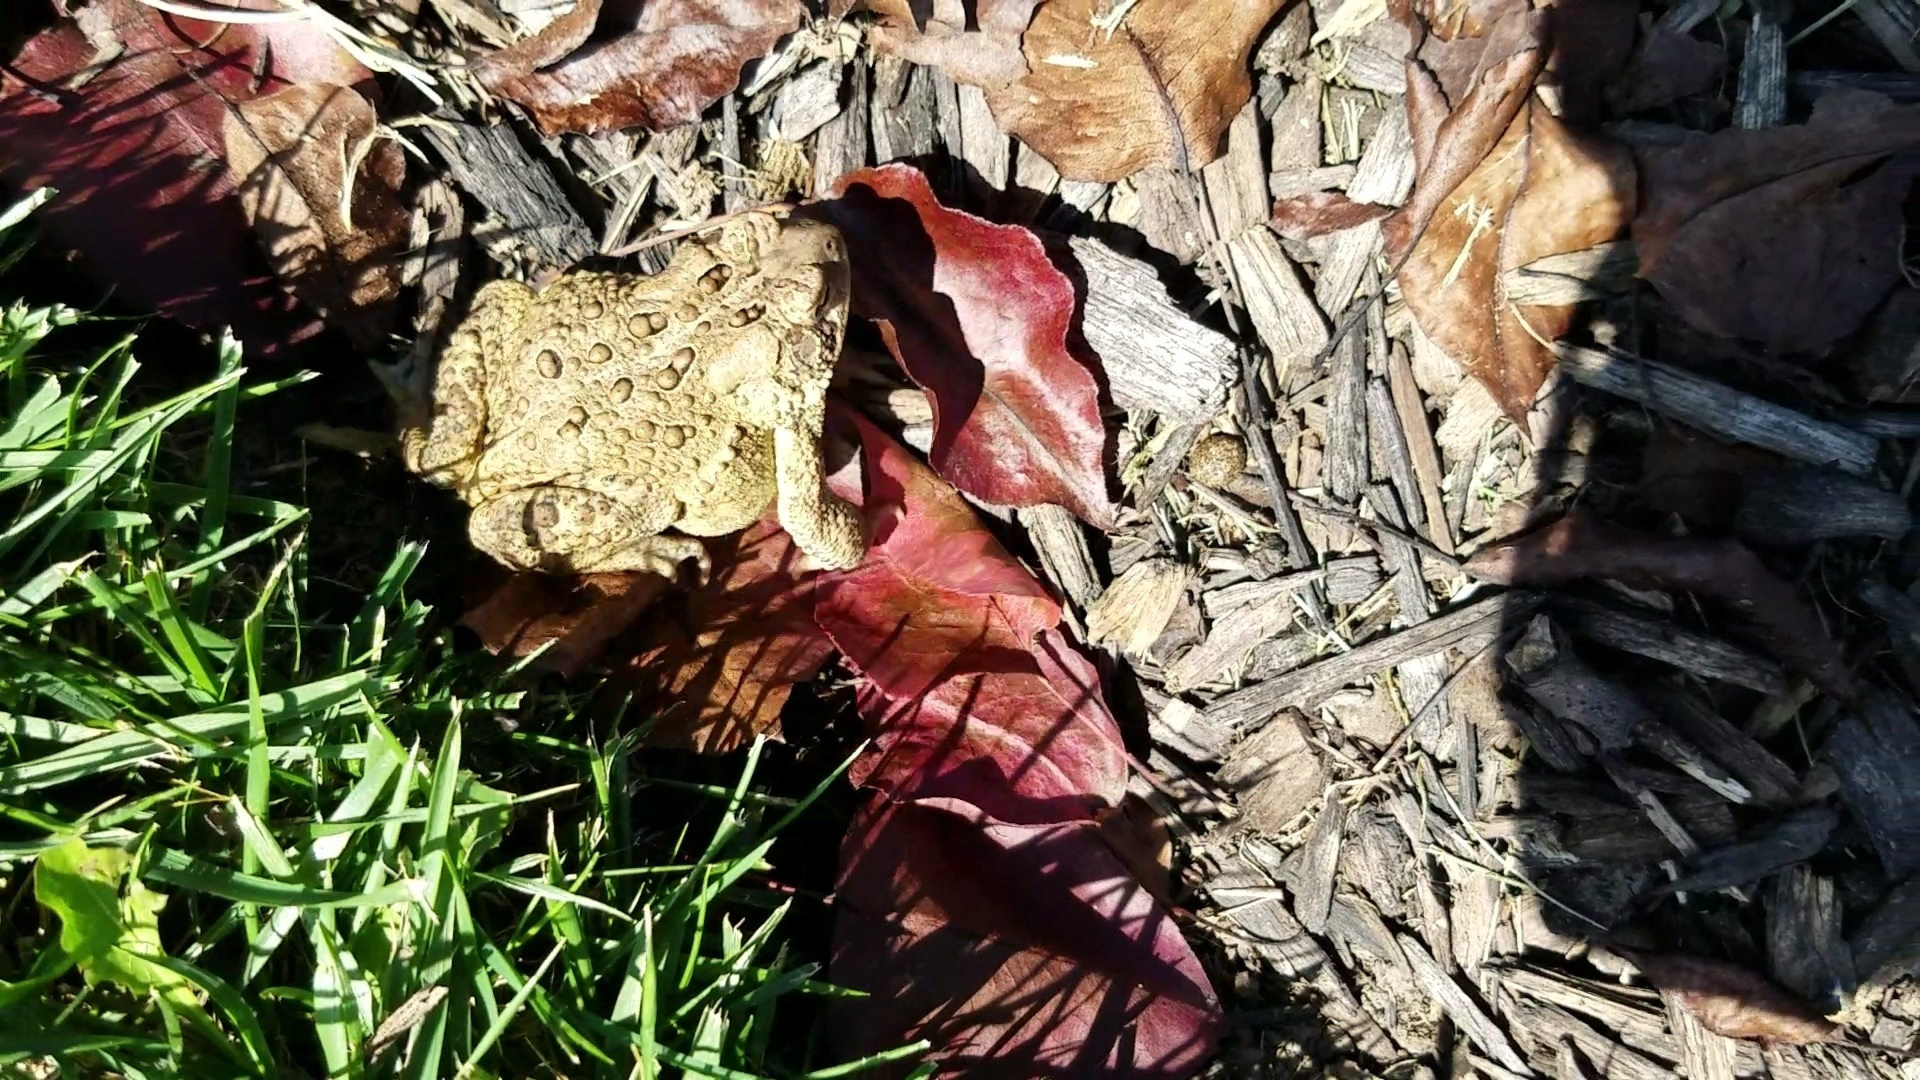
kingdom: Animalia
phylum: Chordata
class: Amphibia
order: Anura
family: Bufonidae
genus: Anaxyrus
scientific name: Anaxyrus americanus
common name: American toad
